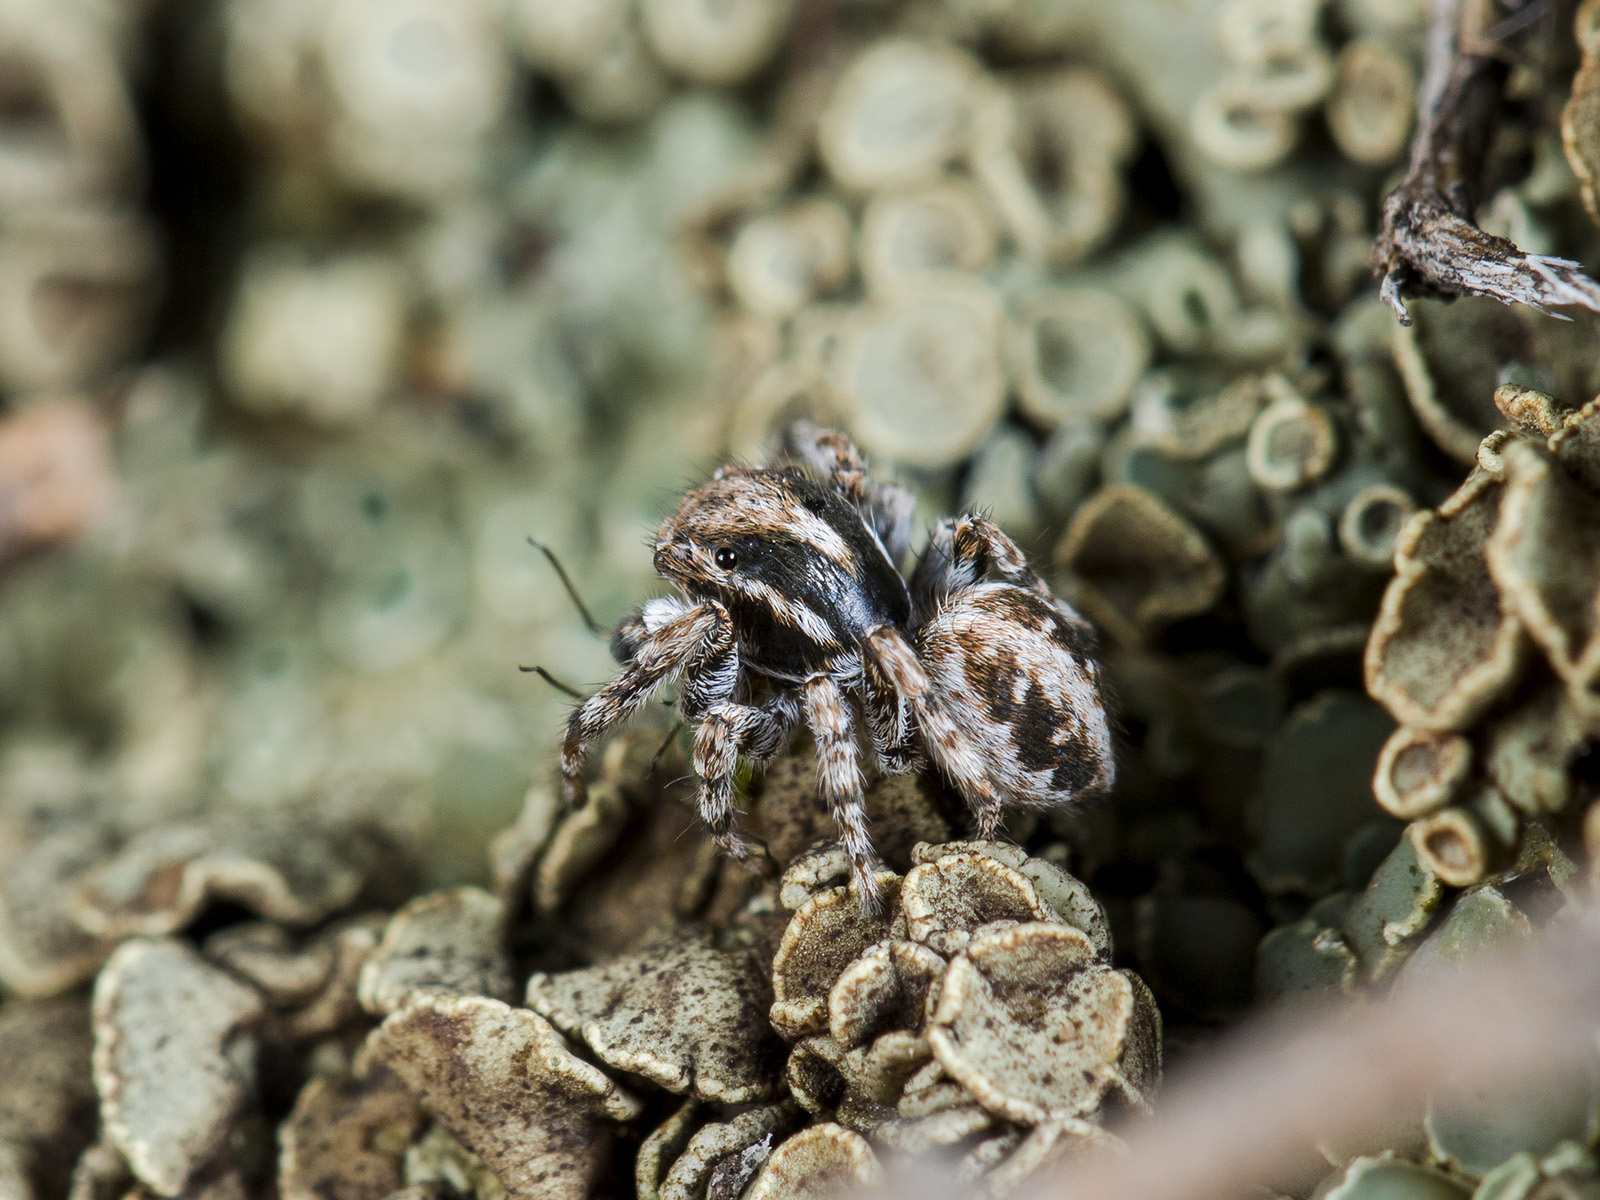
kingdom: Animalia
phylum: Arthropoda
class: Arachnida
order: Araneae
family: Salticidae
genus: Attulus
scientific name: Attulus distinguendus
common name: Distinguished jumper
